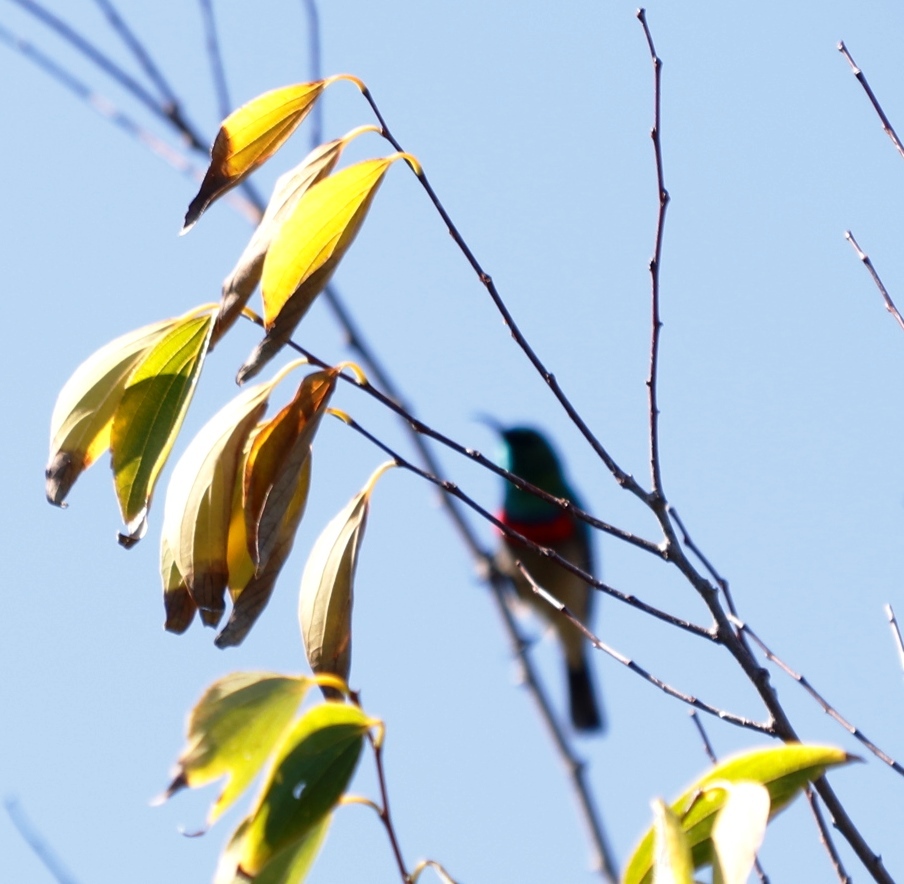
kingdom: Animalia
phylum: Chordata
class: Aves
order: Passeriformes
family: Nectariniidae
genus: Cinnyris
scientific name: Cinnyris chalybeus
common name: Southern double-collared sunbird
